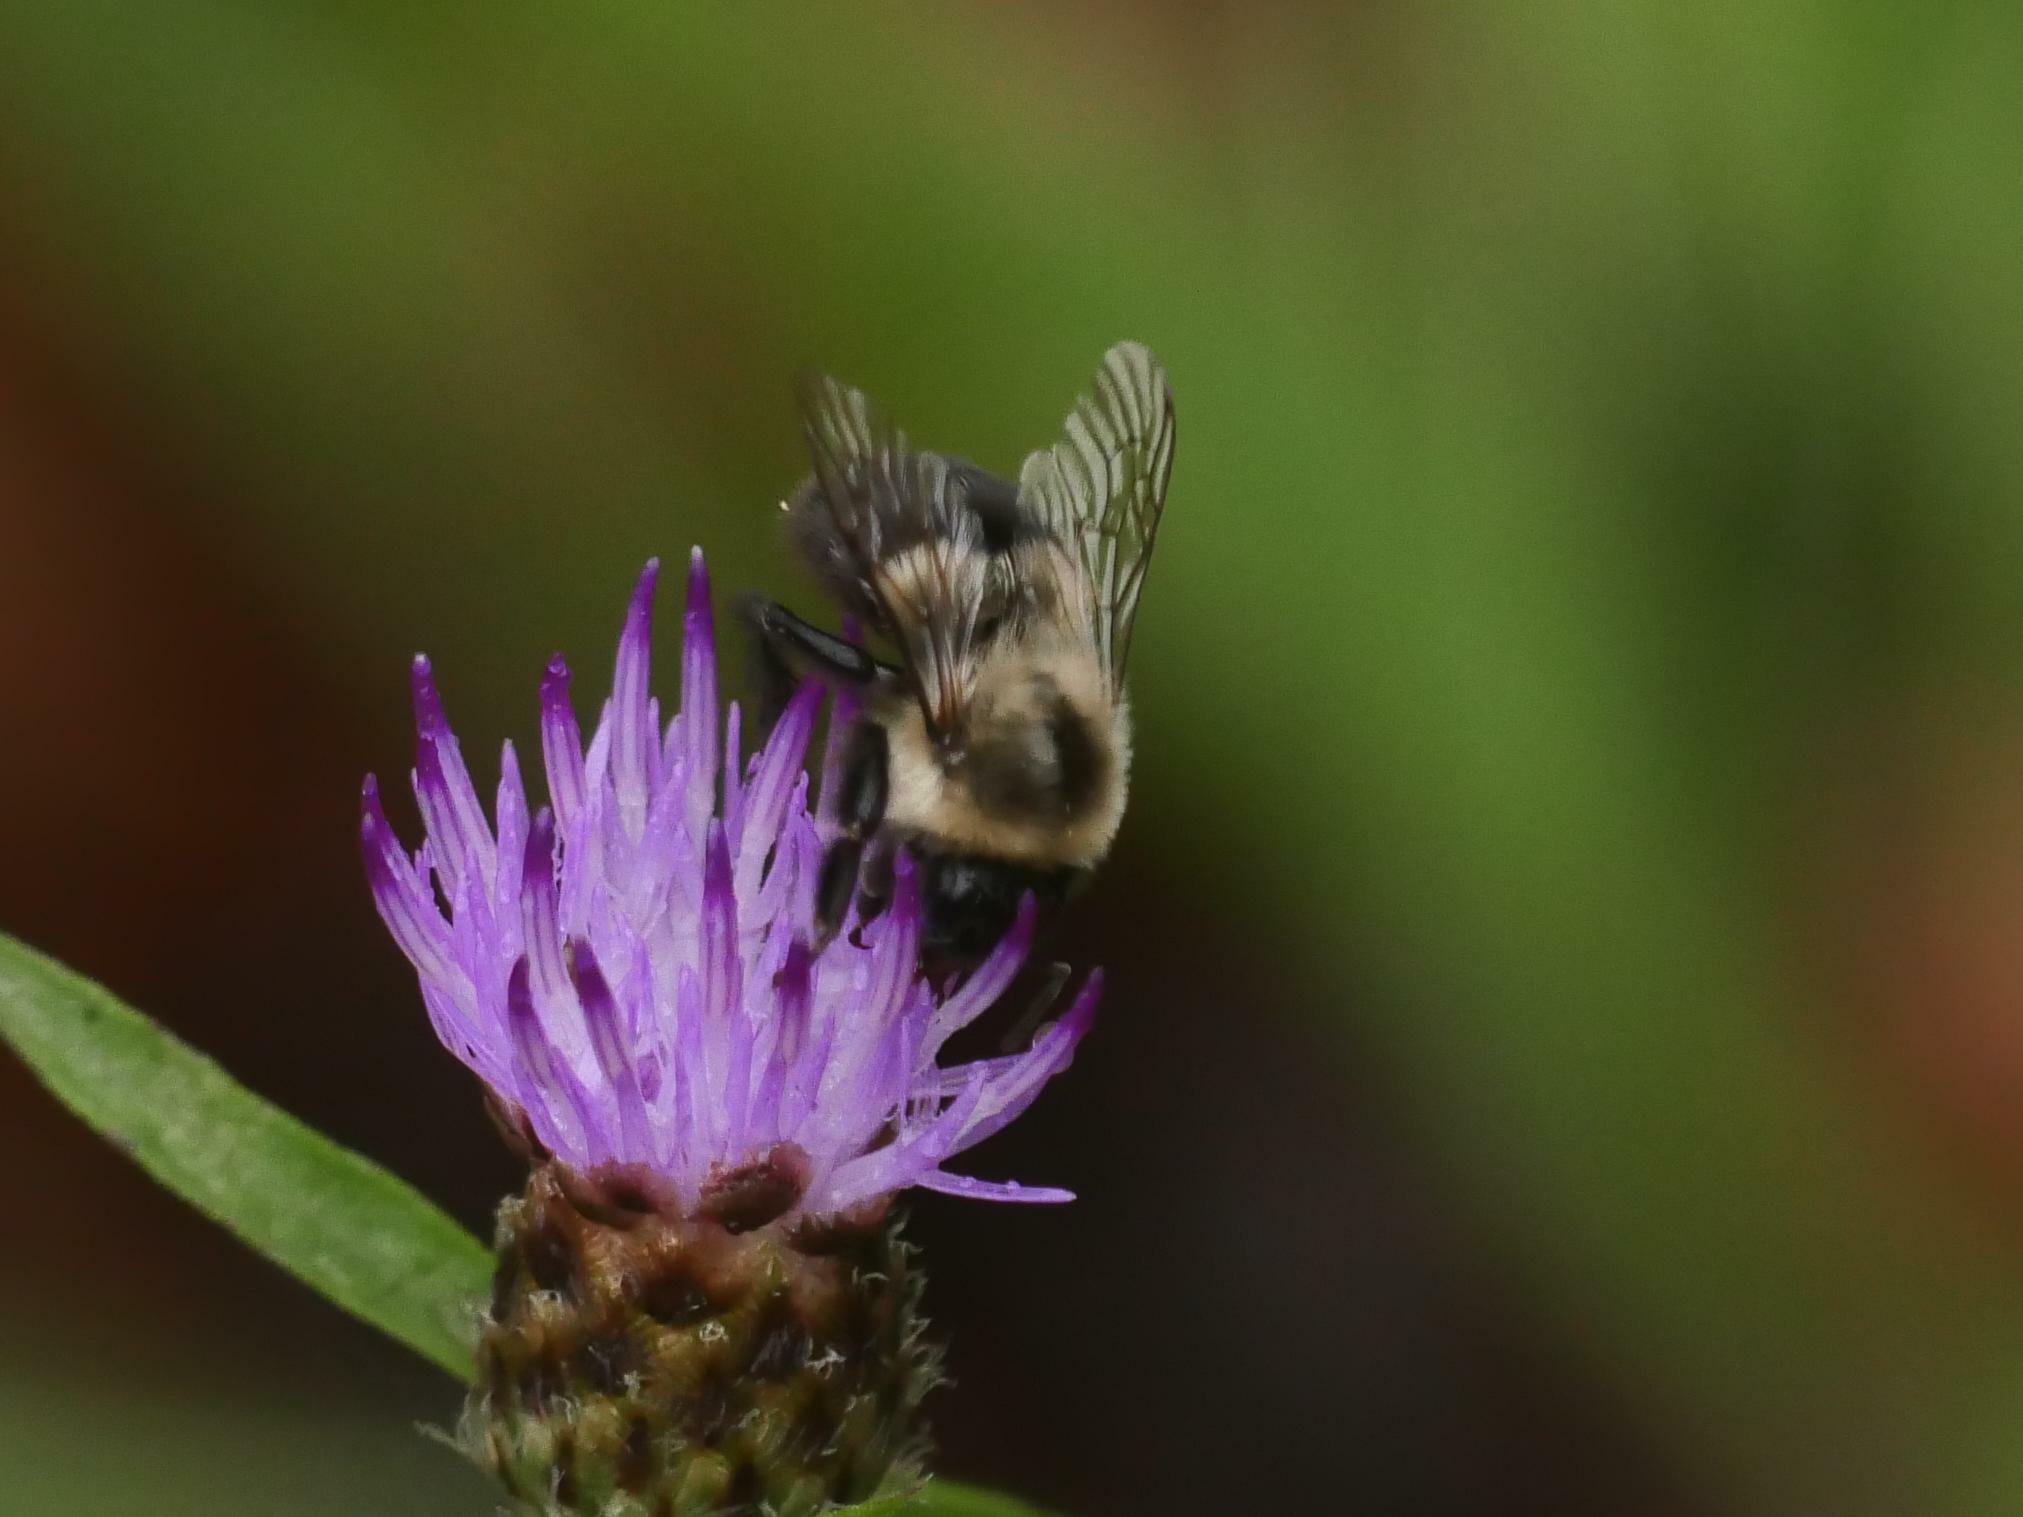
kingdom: Animalia
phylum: Arthropoda
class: Insecta
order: Hymenoptera
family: Apidae
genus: Bombus
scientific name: Bombus impatiens
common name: Common eastern bumble bee
